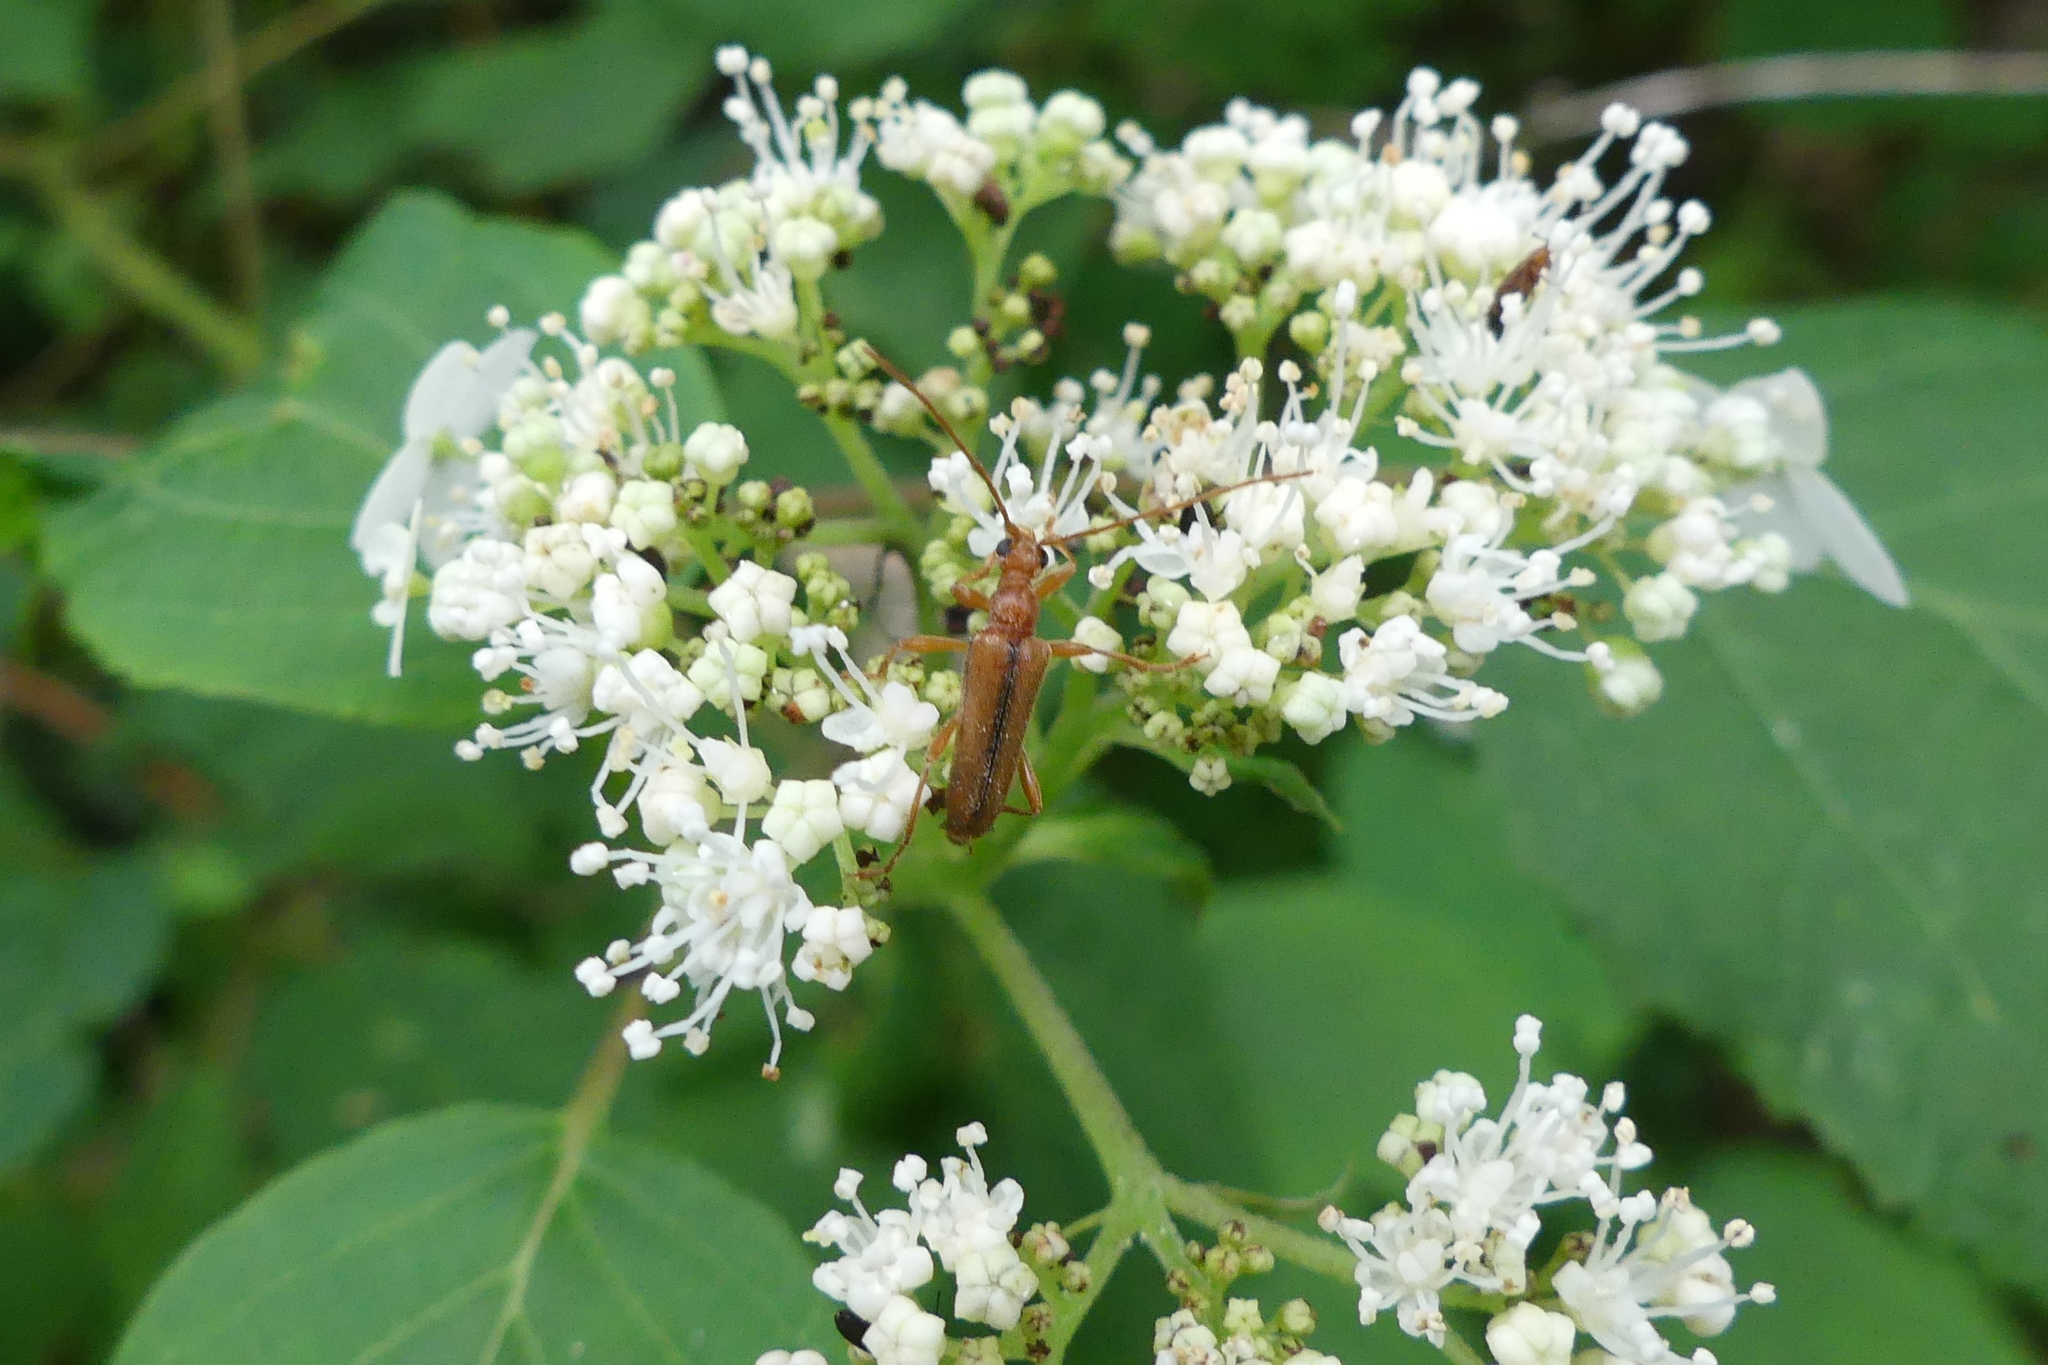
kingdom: Animalia
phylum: Arthropoda
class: Insecta
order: Coleoptera
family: Cerambycidae
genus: Pidonia
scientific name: Pidonia aurata
